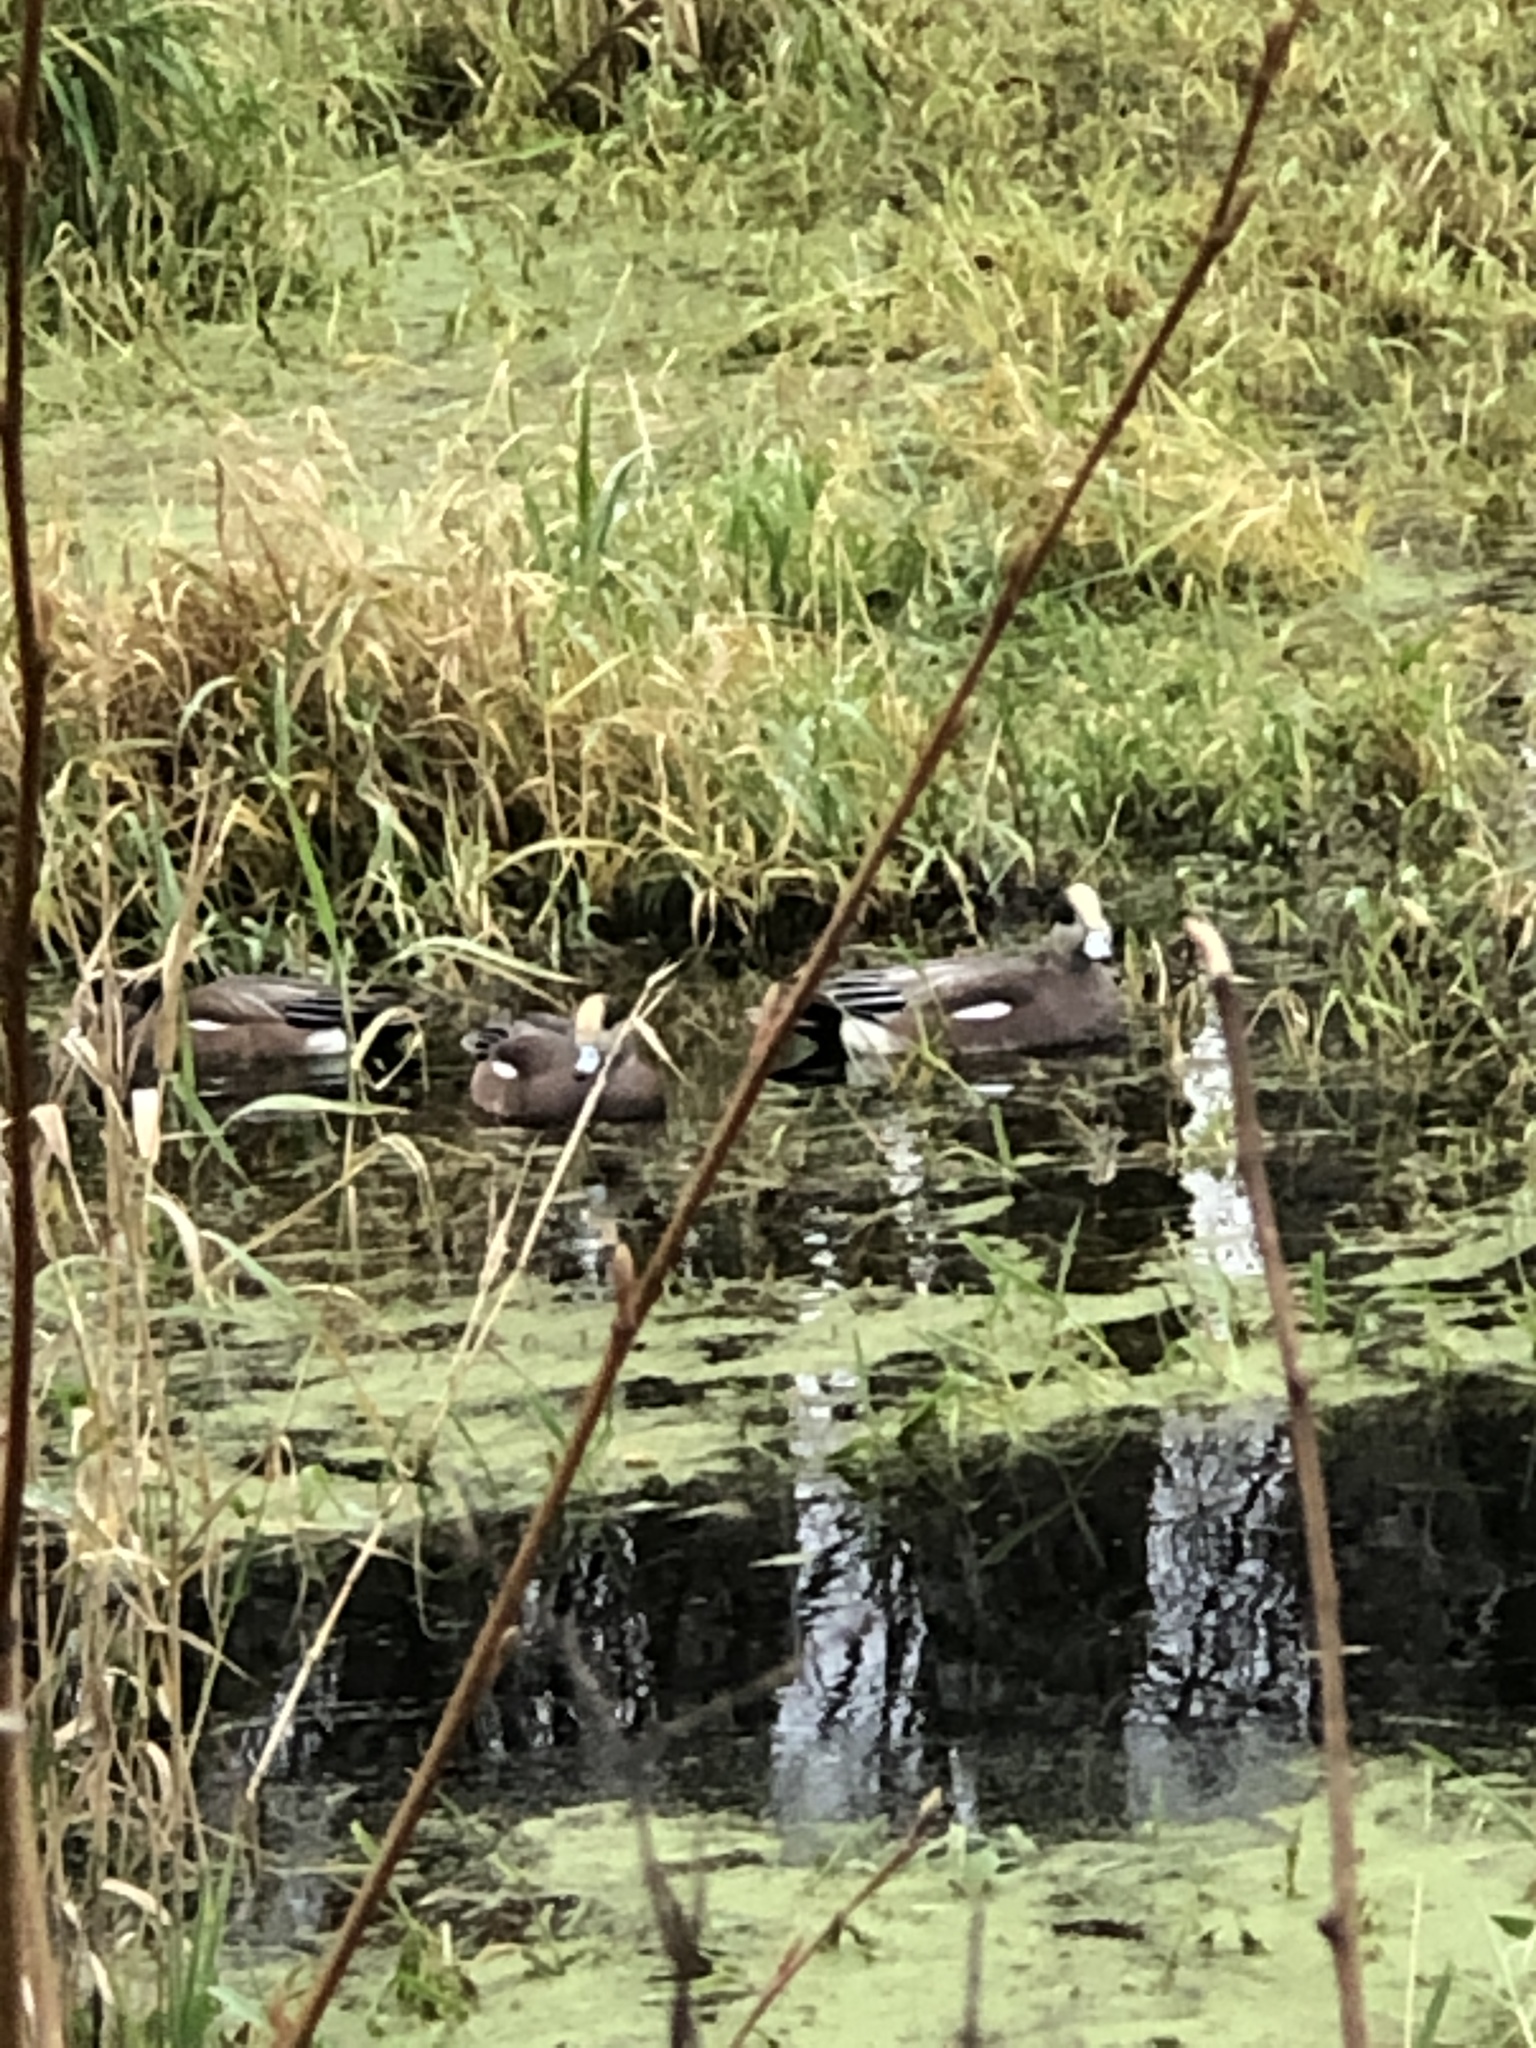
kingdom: Animalia
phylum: Chordata
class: Aves
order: Anseriformes
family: Anatidae
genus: Mareca
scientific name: Mareca americana
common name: American wigeon
